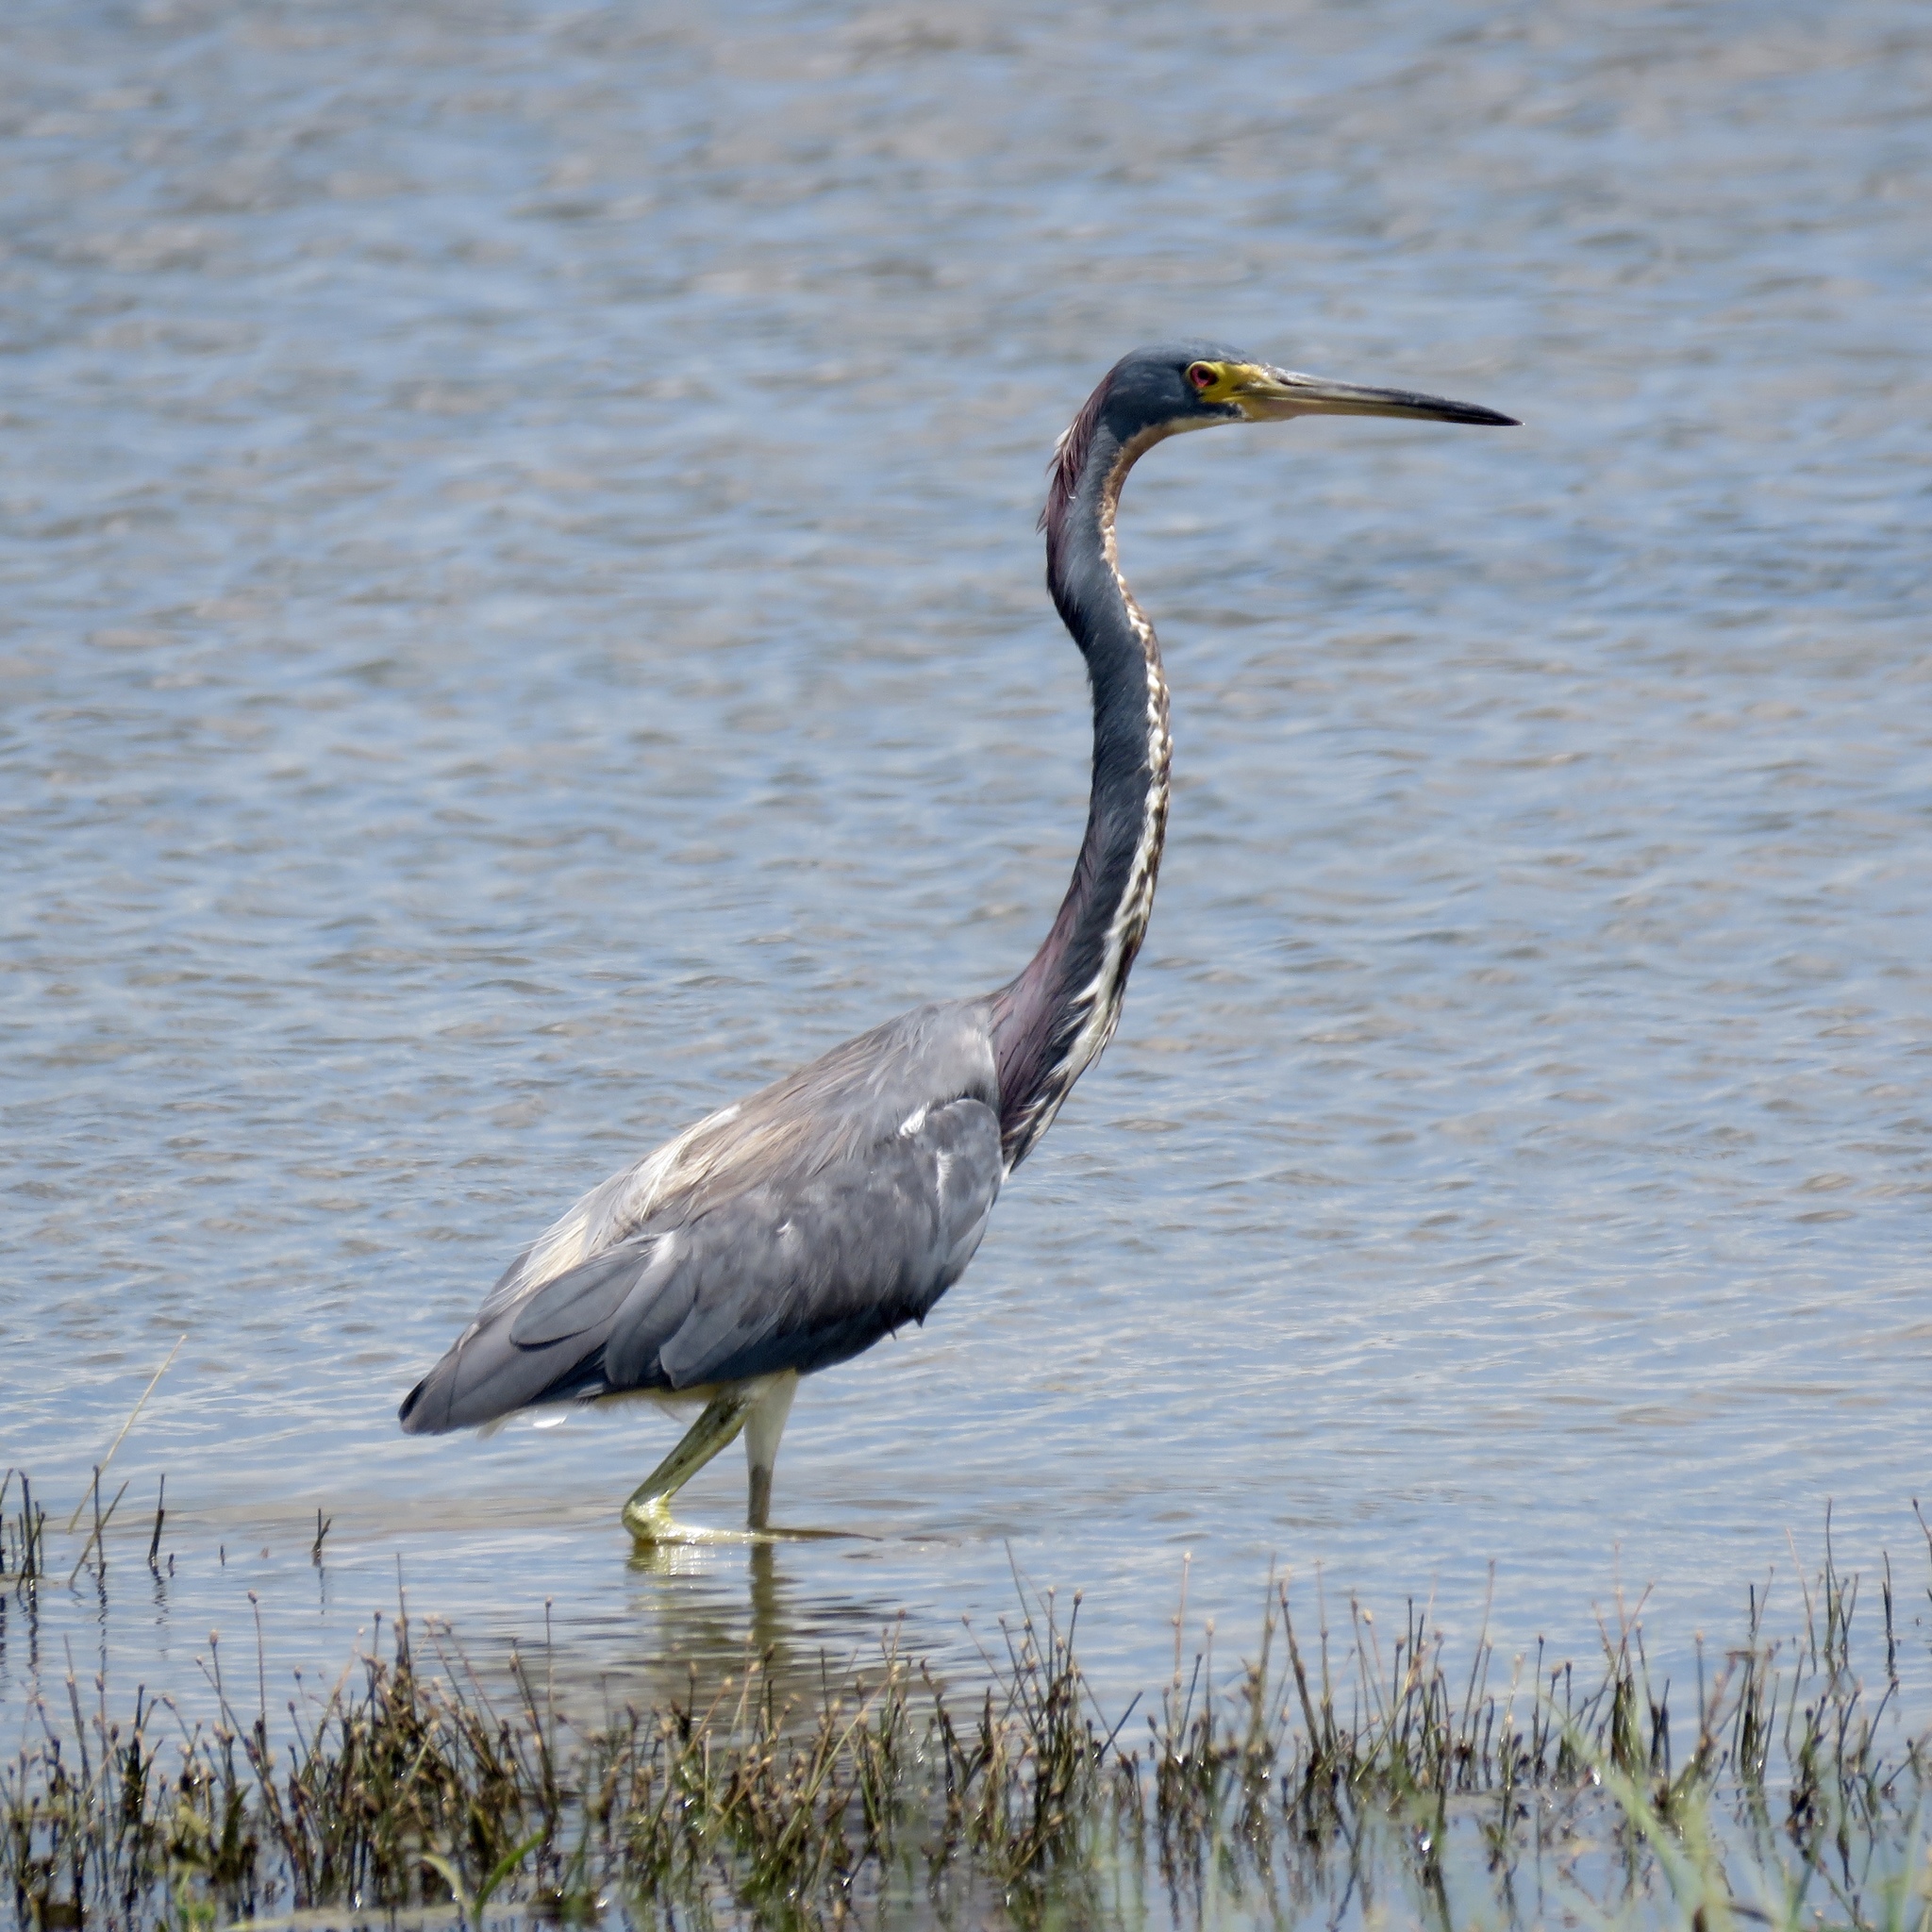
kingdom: Animalia
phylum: Chordata
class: Aves
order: Pelecaniformes
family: Ardeidae
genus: Egretta
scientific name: Egretta tricolor
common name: Tricolored heron
